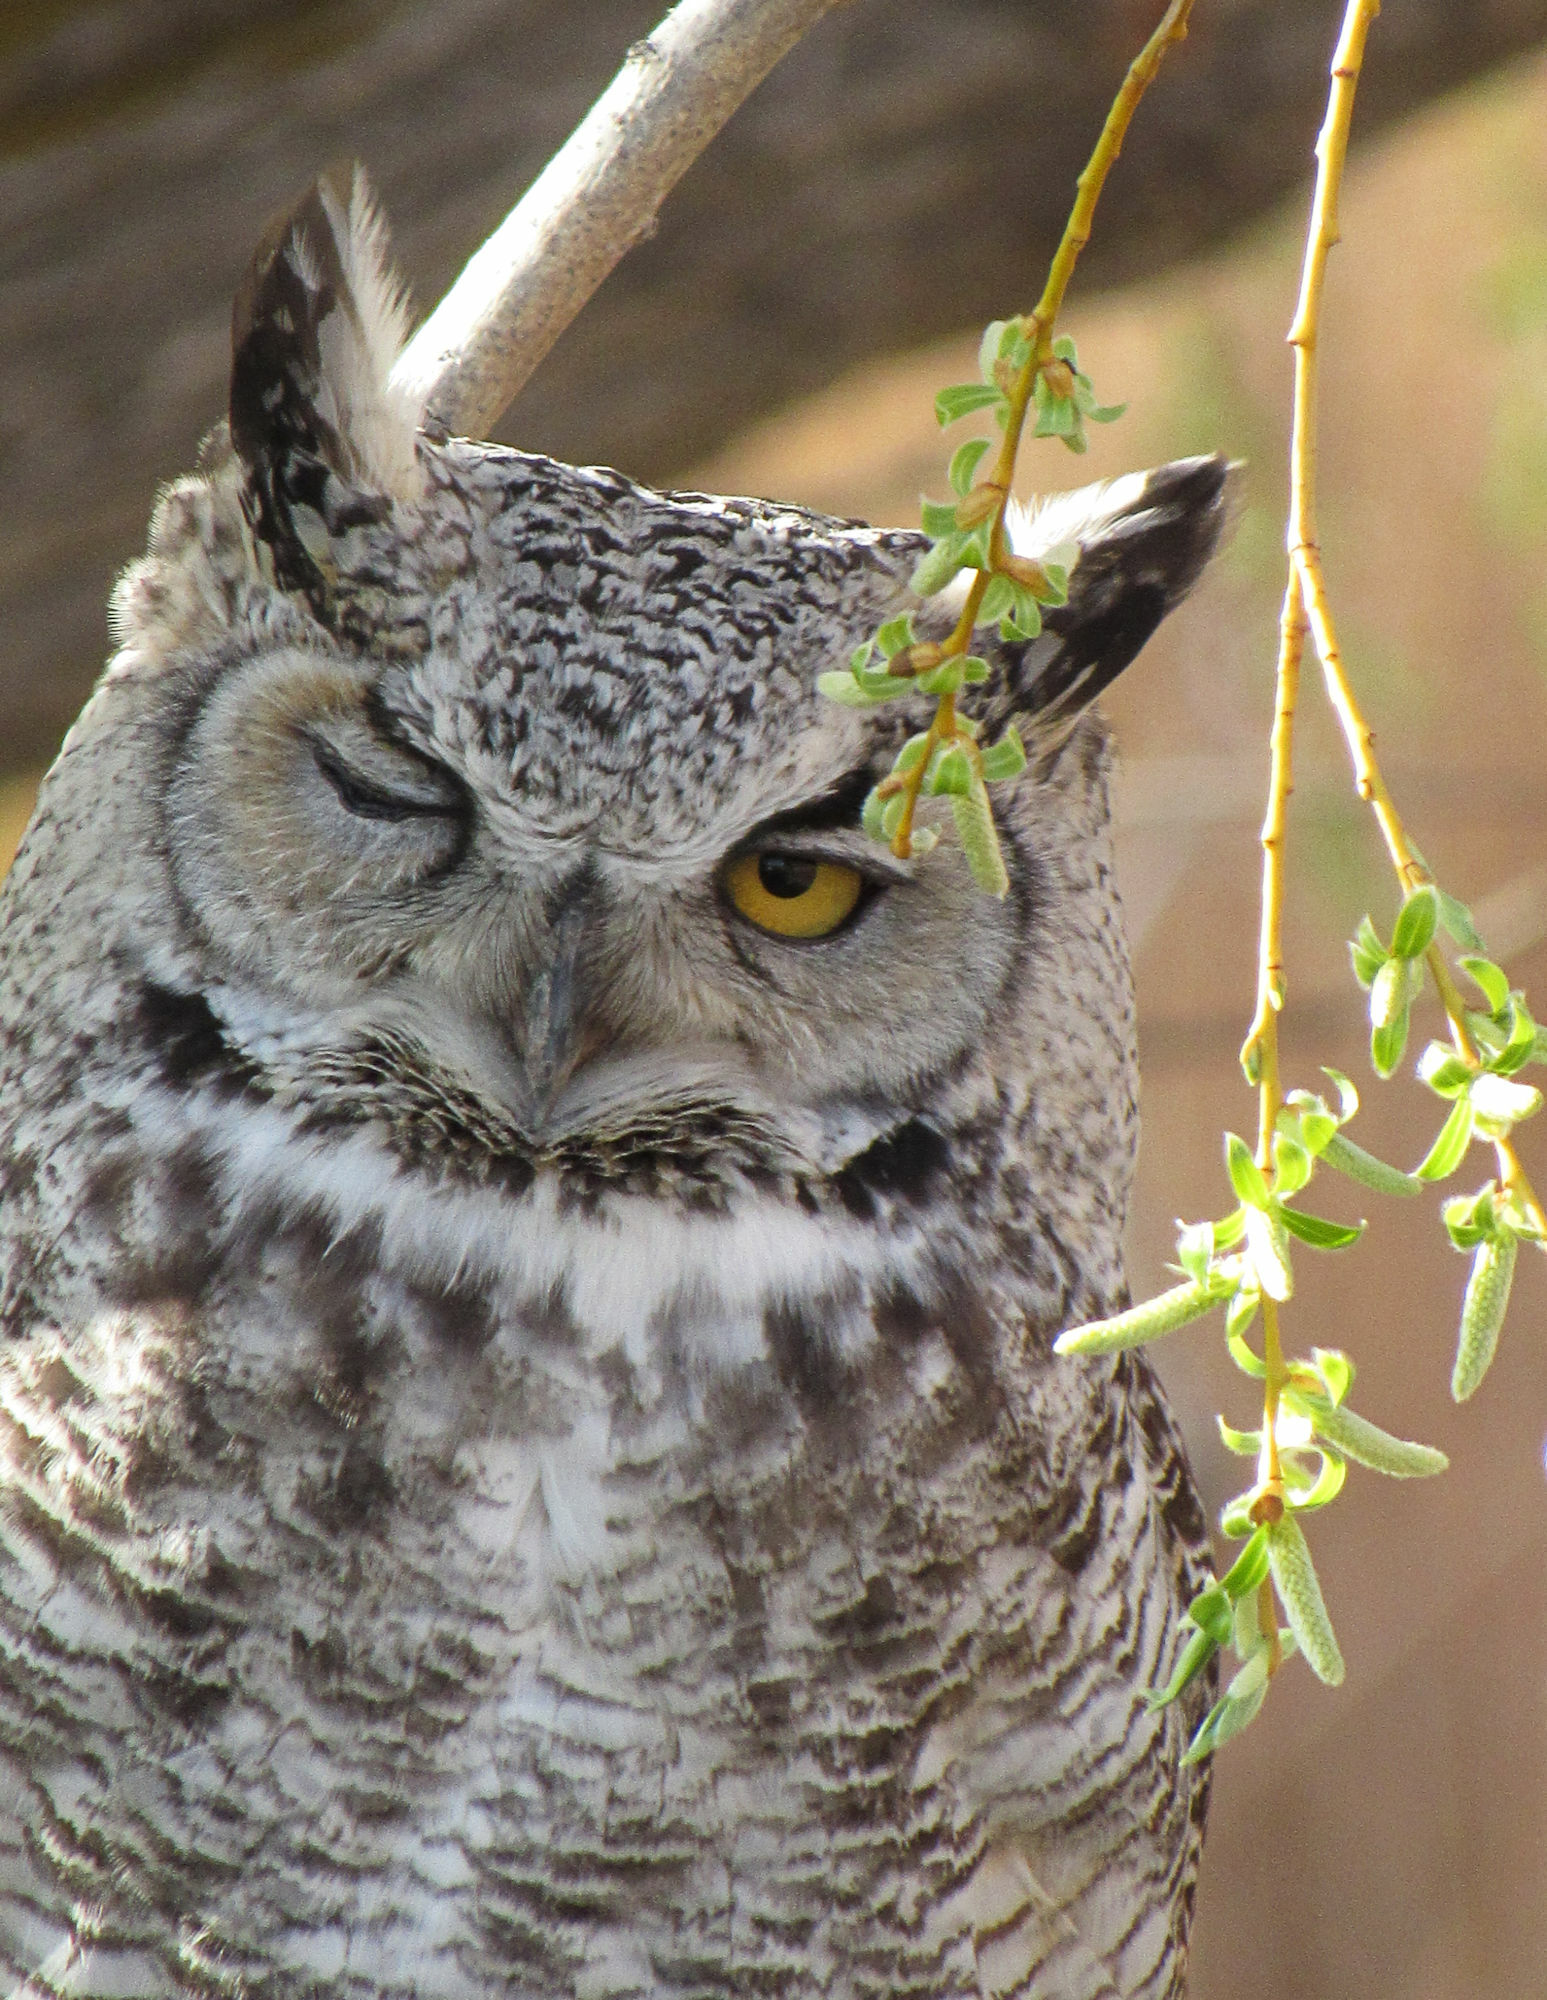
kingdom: Animalia
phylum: Chordata
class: Aves
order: Strigiformes
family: Strigidae
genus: Bubo
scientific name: Bubo virginianus
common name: Great horned owl
